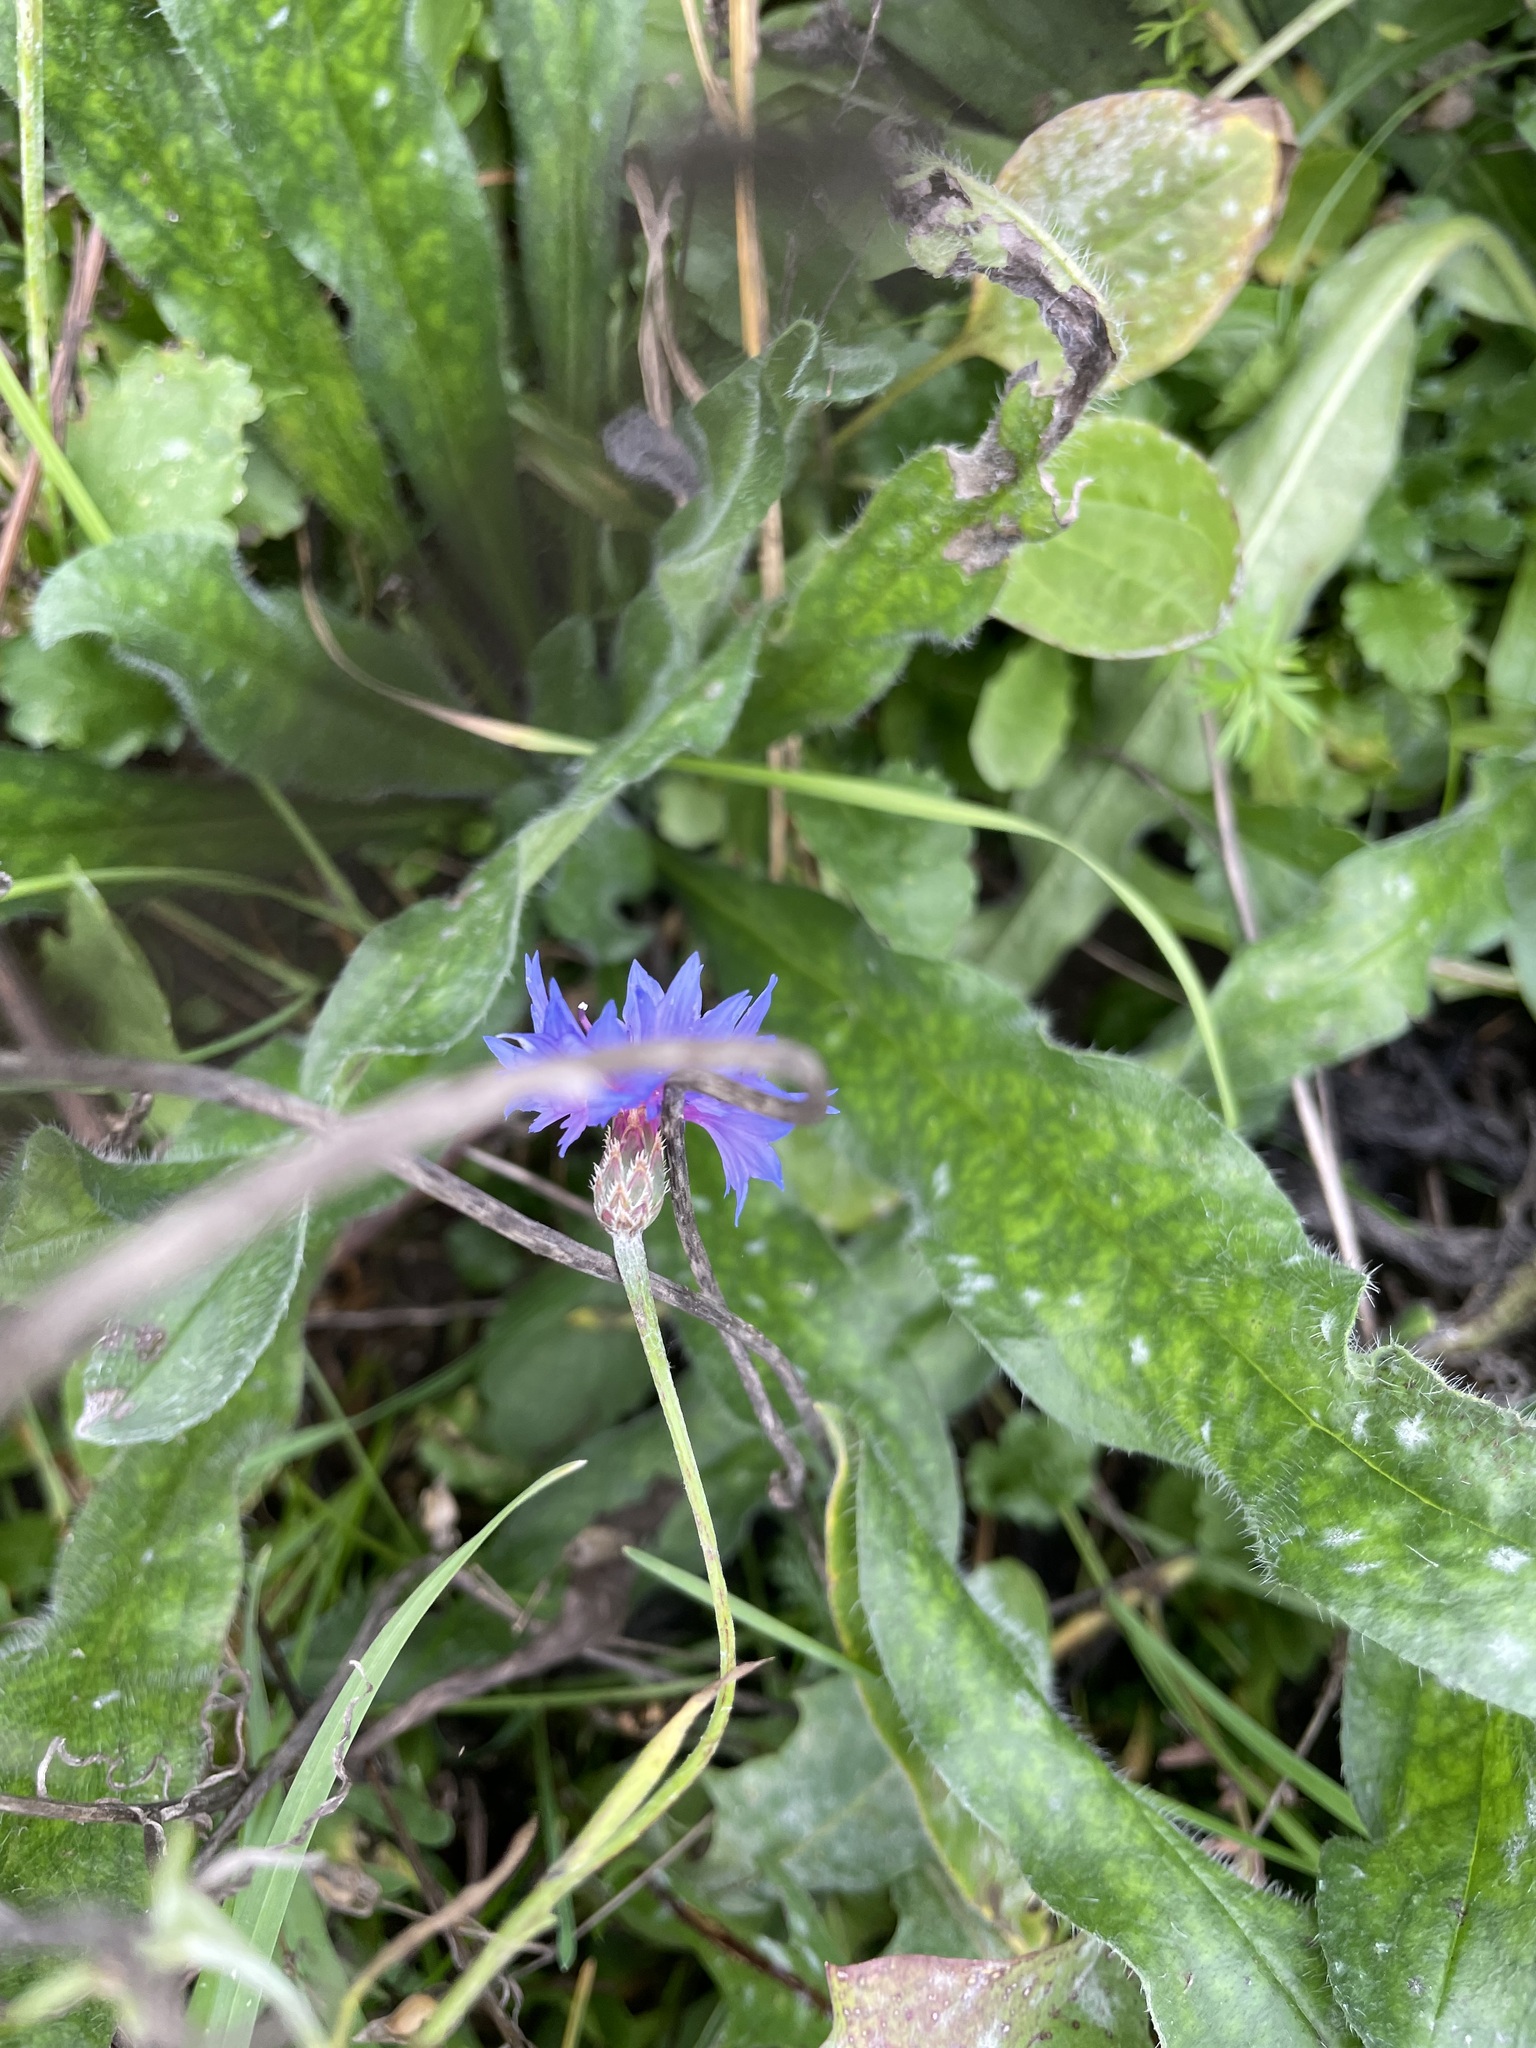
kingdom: Plantae
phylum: Tracheophyta
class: Magnoliopsida
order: Asterales
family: Asteraceae
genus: Centaurea
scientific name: Centaurea cyanus
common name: Cornflower
